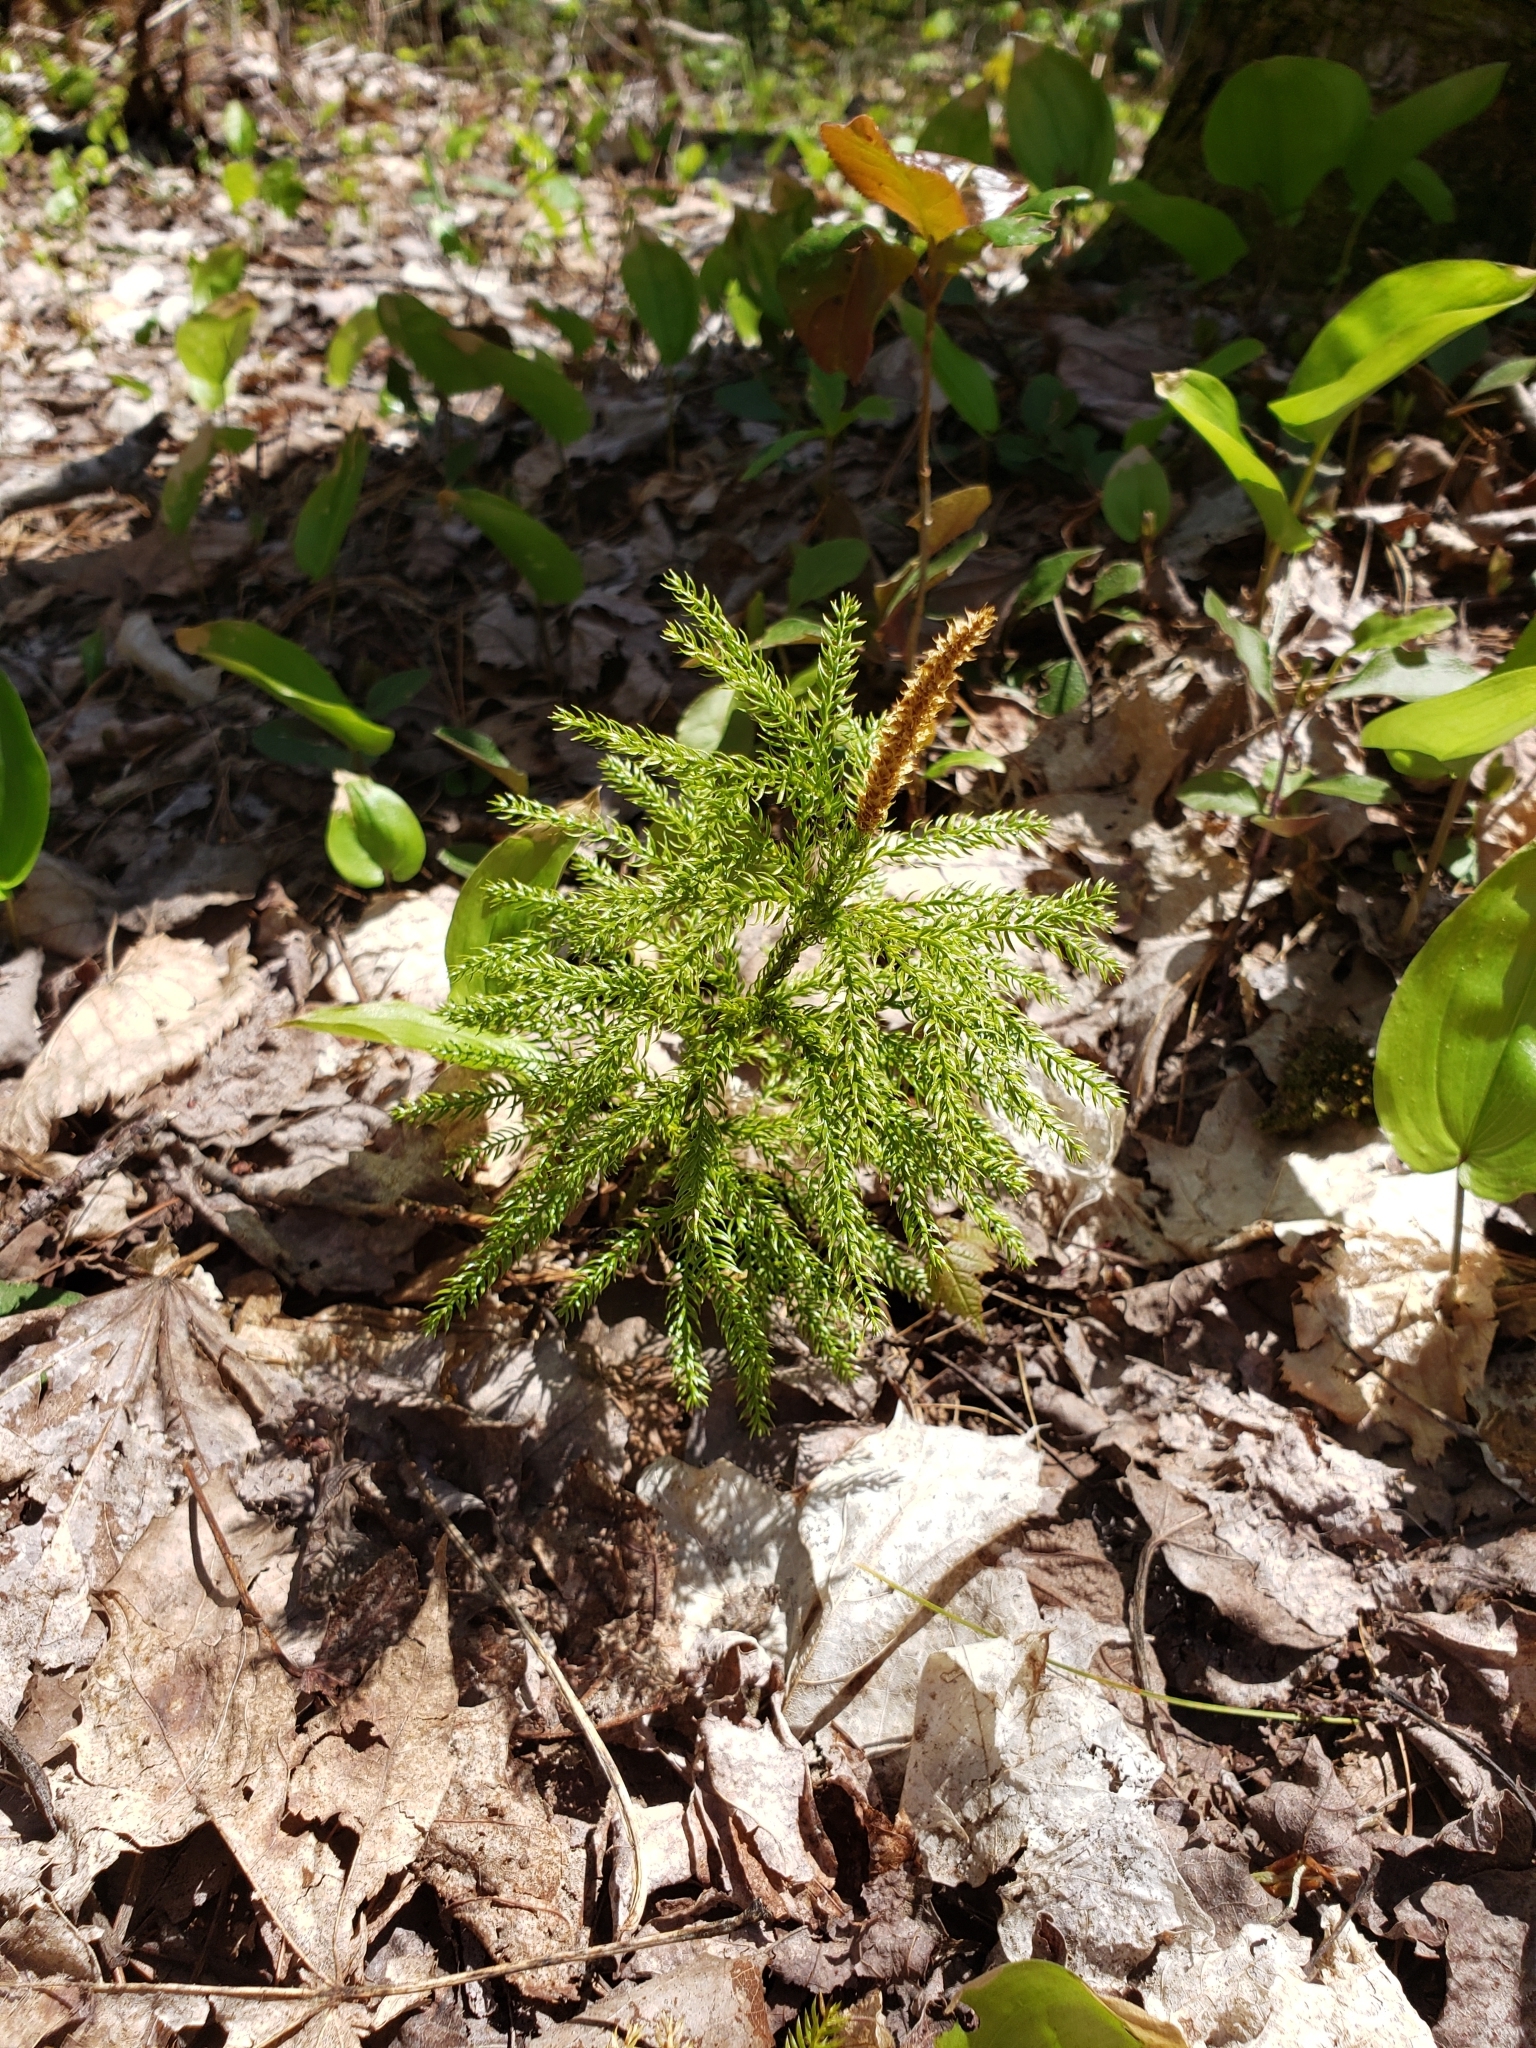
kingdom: Plantae
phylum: Tracheophyta
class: Lycopodiopsida
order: Lycopodiales
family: Lycopodiaceae
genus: Dendrolycopodium
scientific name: Dendrolycopodium hickeyi
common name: Hickey's clubmoss
